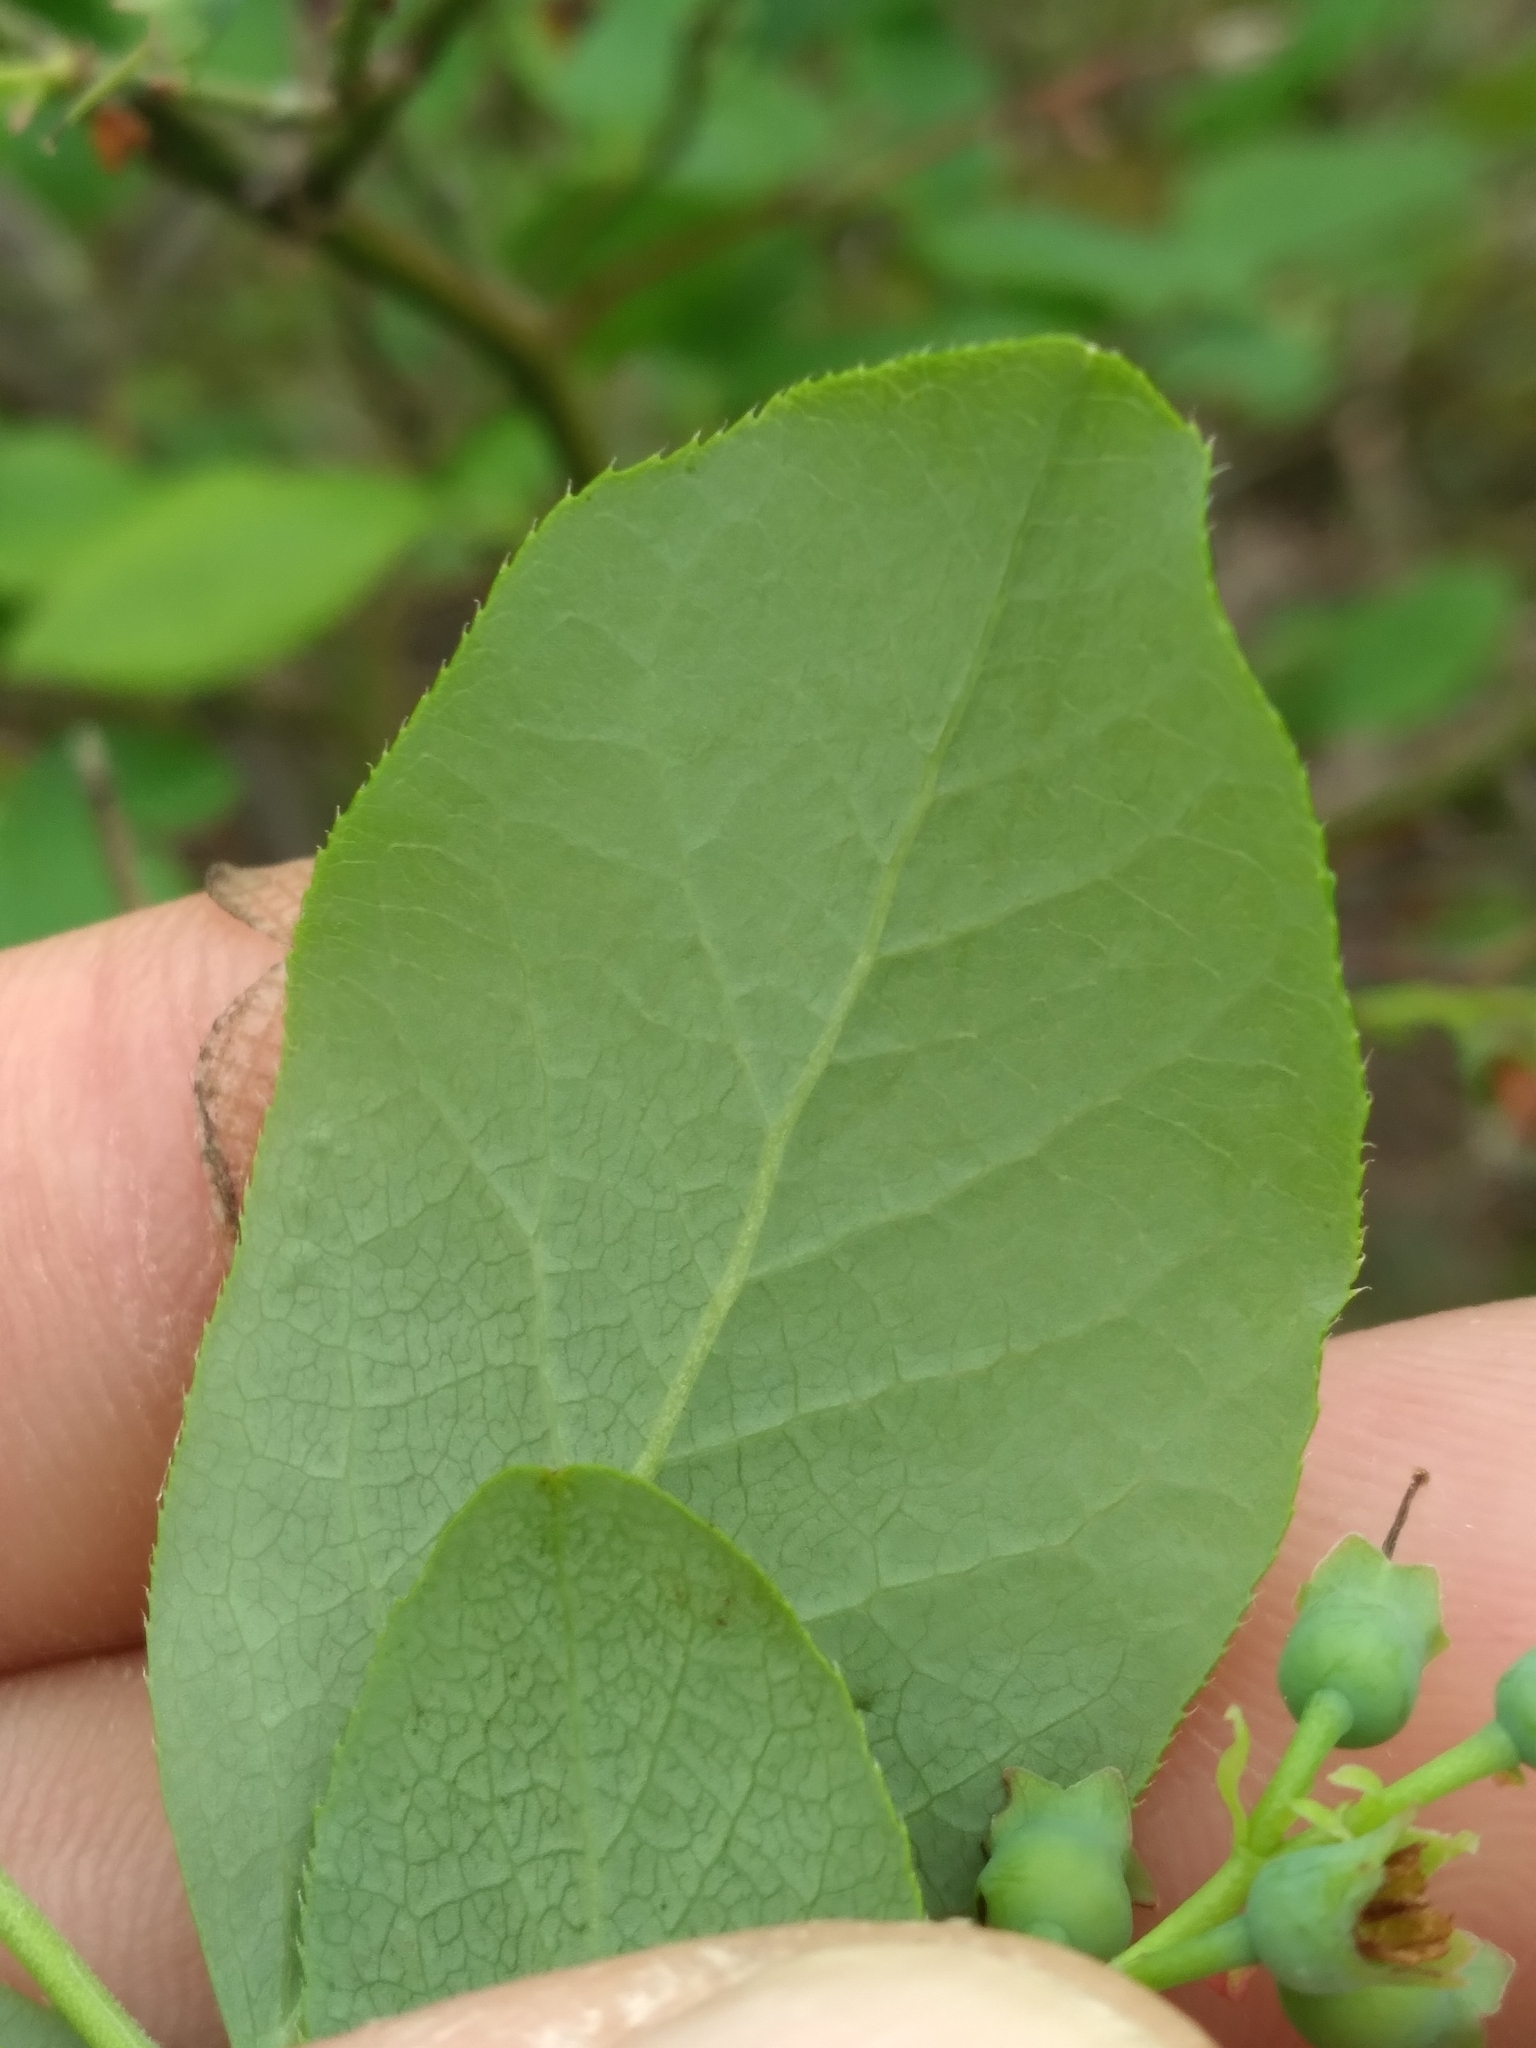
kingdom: Plantae
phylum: Tracheophyta
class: Magnoliopsida
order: Ericales
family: Ericaceae
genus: Vaccinium
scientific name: Vaccinium pallidum
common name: Blue ridge blueberry
